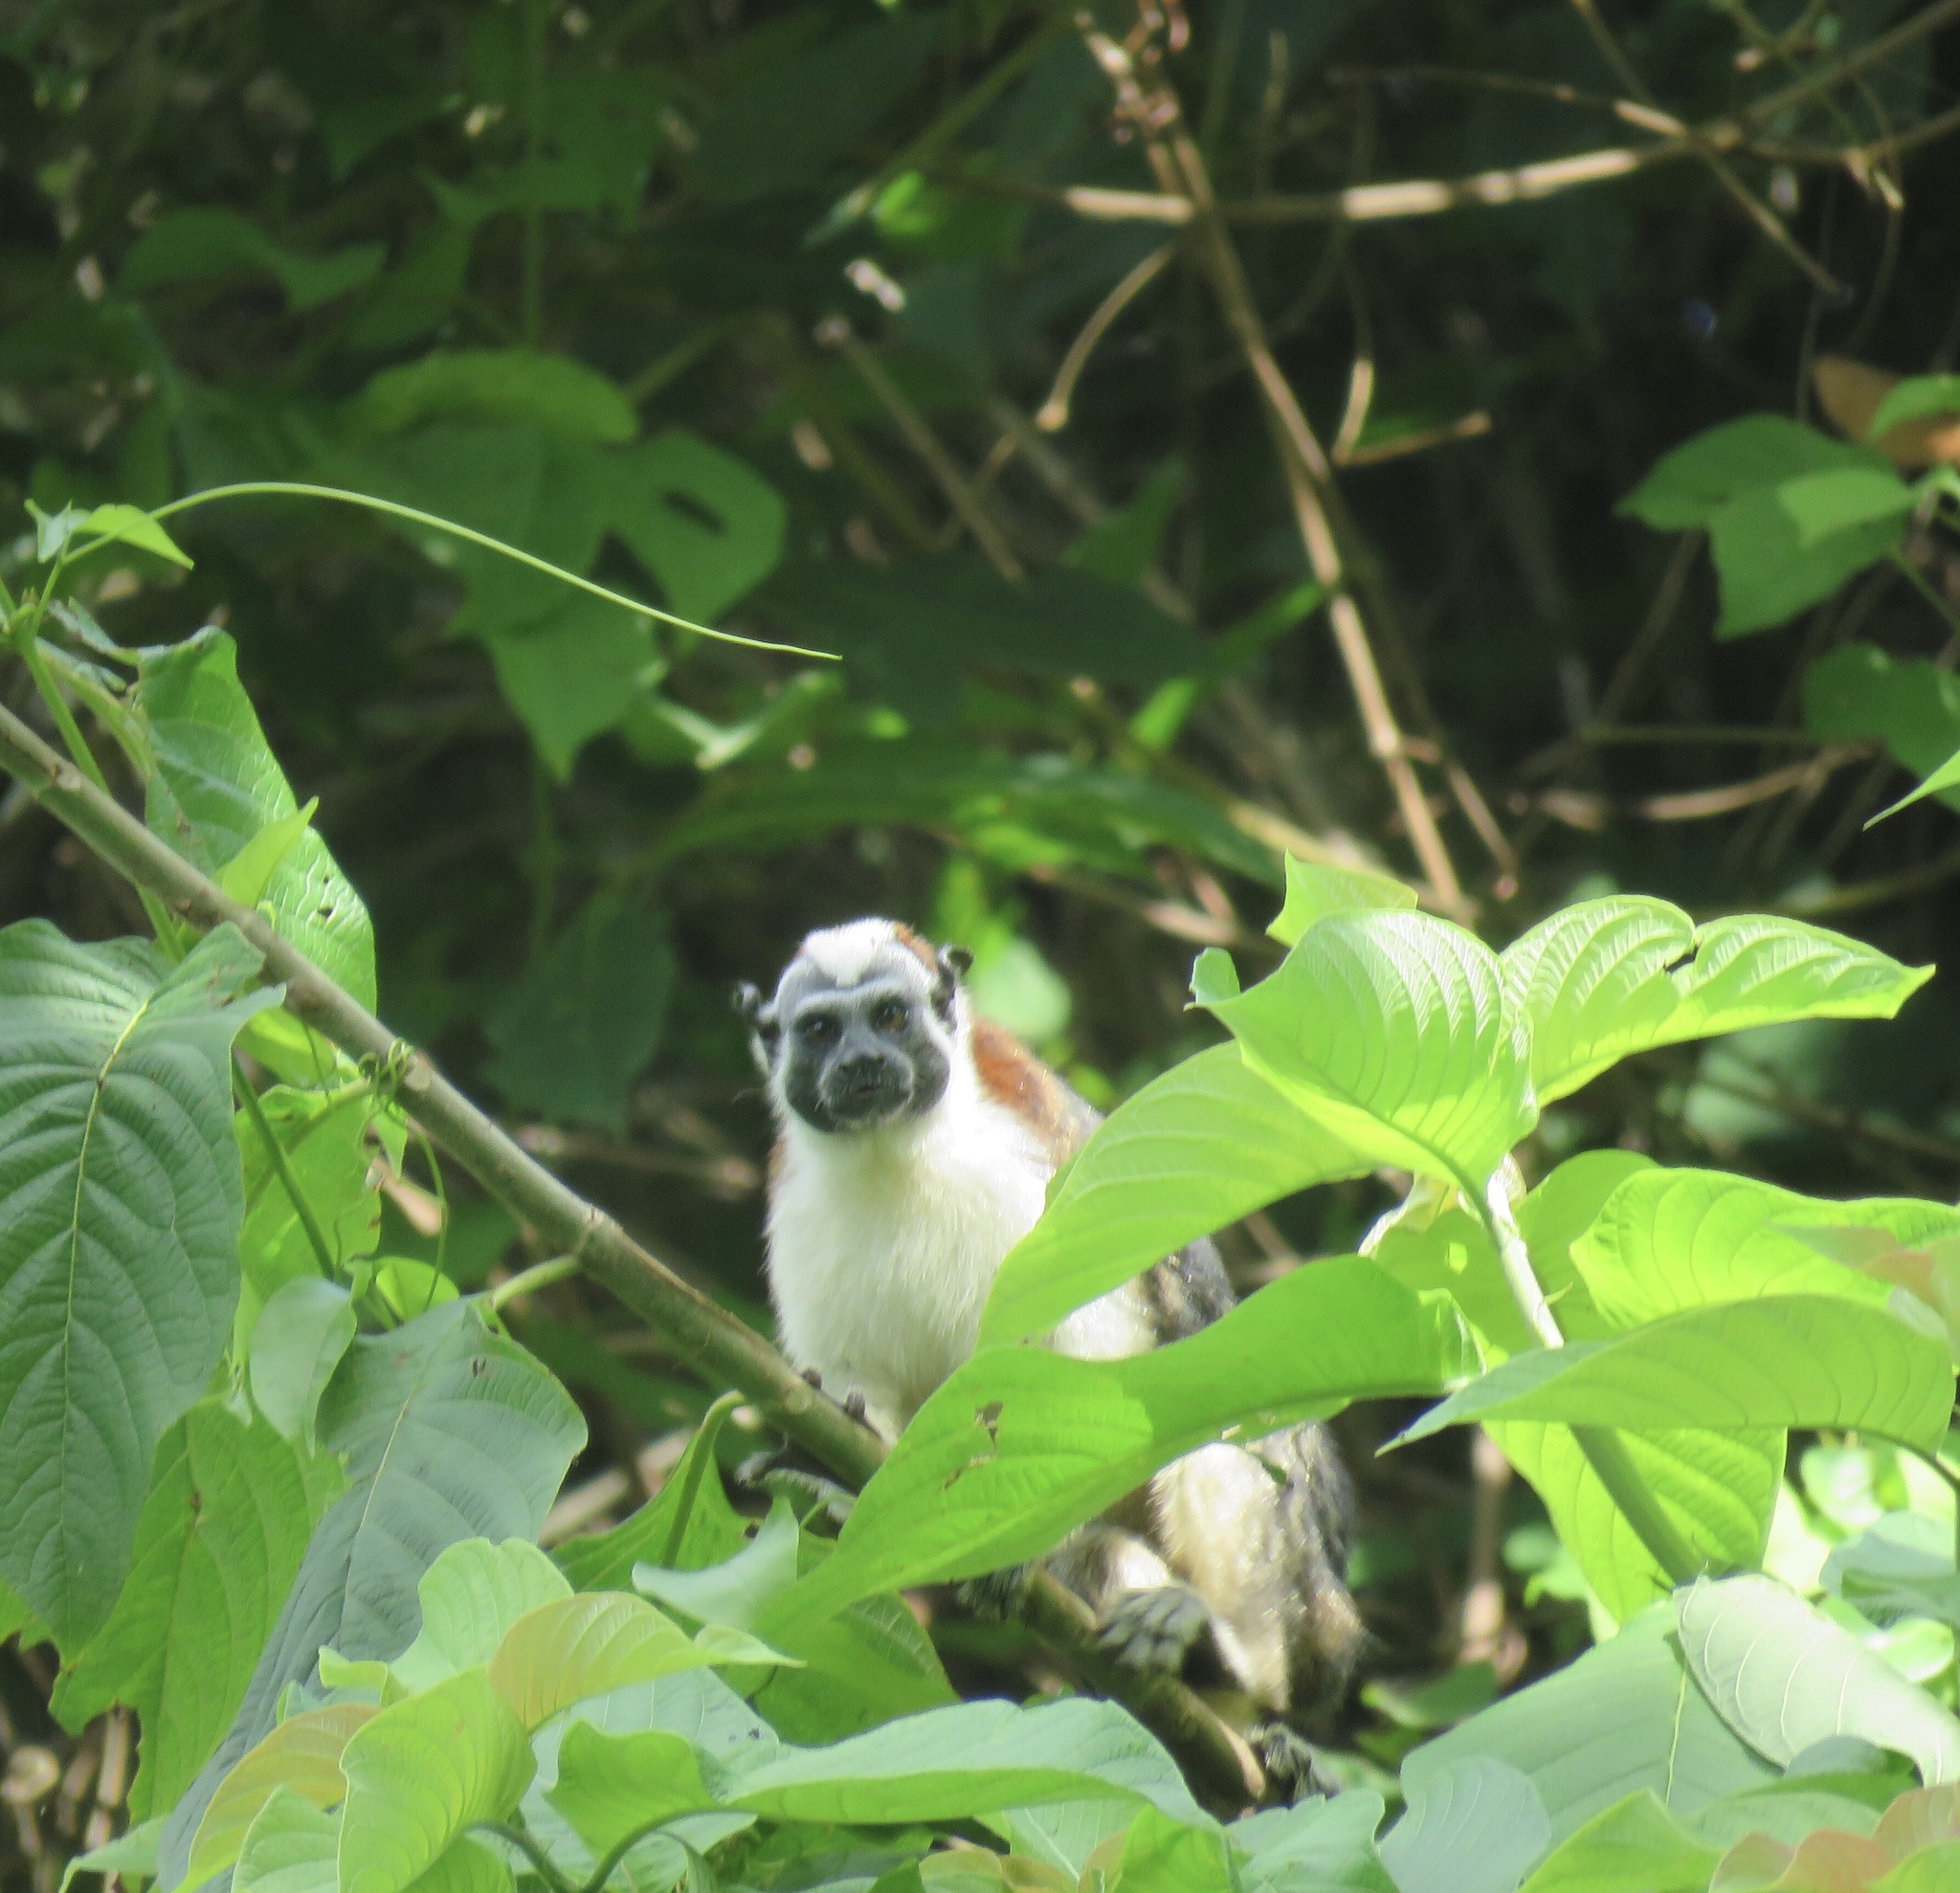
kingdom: Animalia
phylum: Chordata
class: Mammalia
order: Primates
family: Callitrichidae
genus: Saguinus
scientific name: Saguinus geoffroyi
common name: Geoffroy s tamarin
